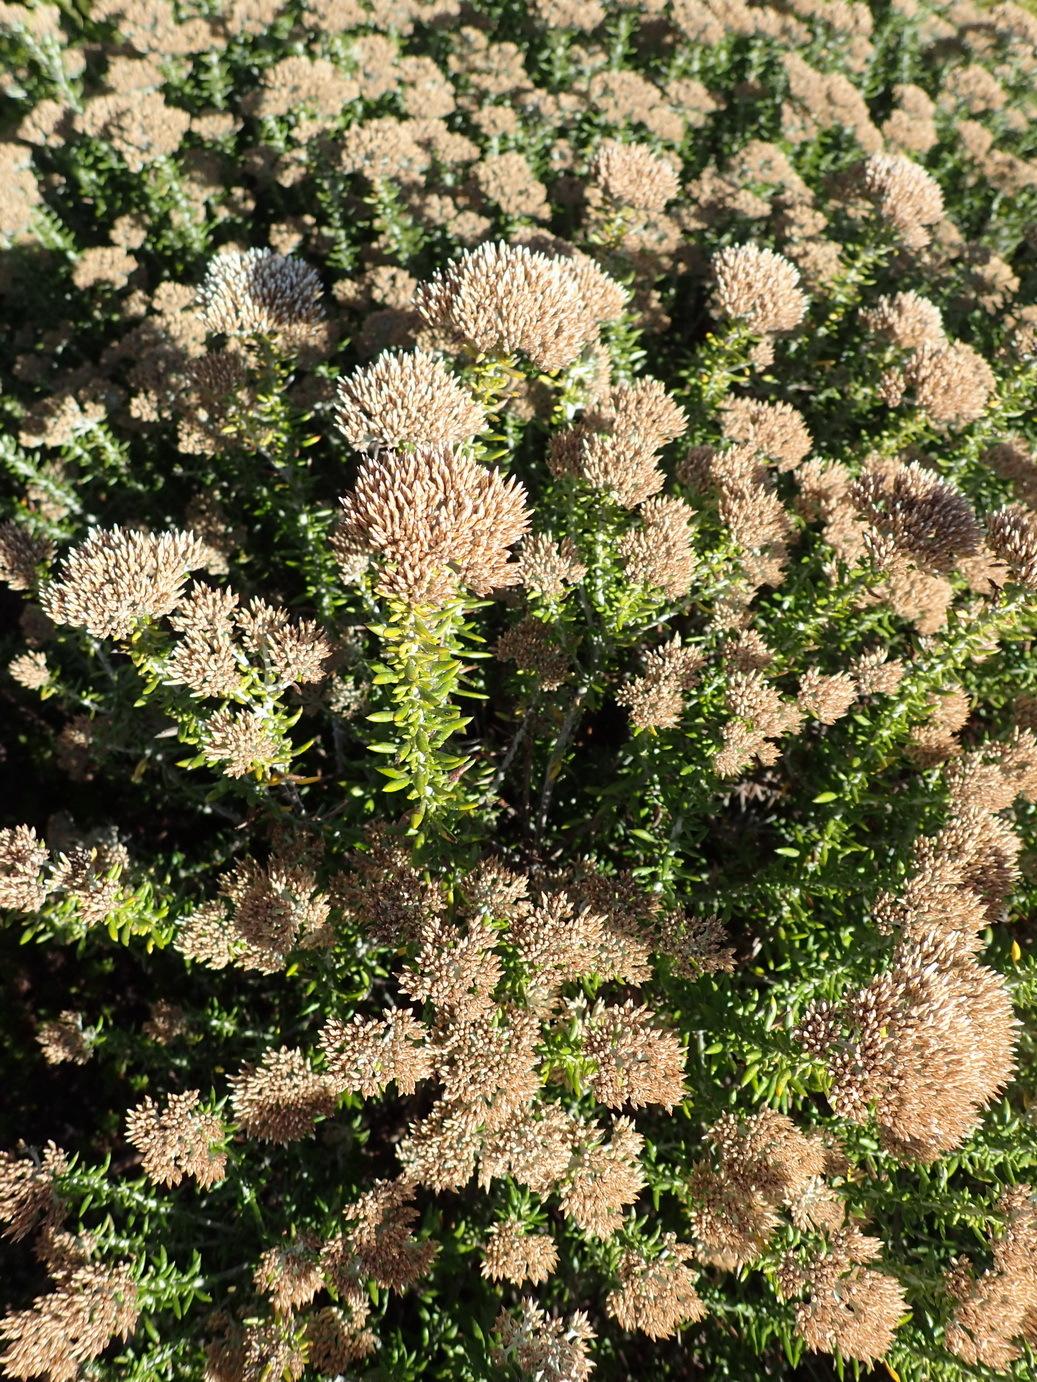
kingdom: Plantae
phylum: Tracheophyta
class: Magnoliopsida
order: Asterales
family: Asteraceae
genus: Metalasia
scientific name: Metalasia muricata
